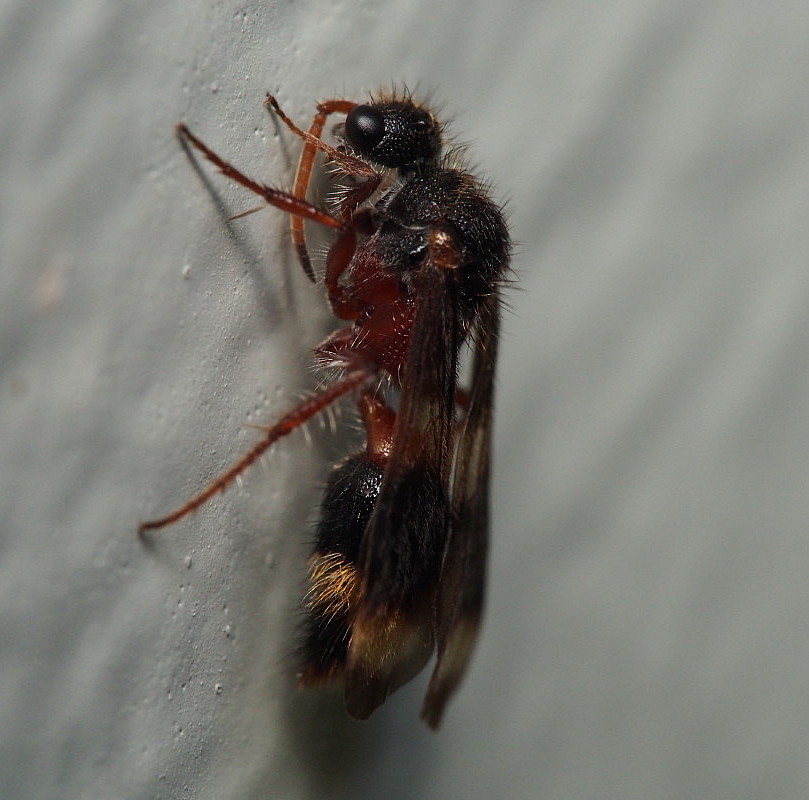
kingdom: Animalia
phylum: Arthropoda
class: Insecta
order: Hymenoptera
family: Mutillidae
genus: Ephutomorpha
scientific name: Ephutomorpha bivulnerata
